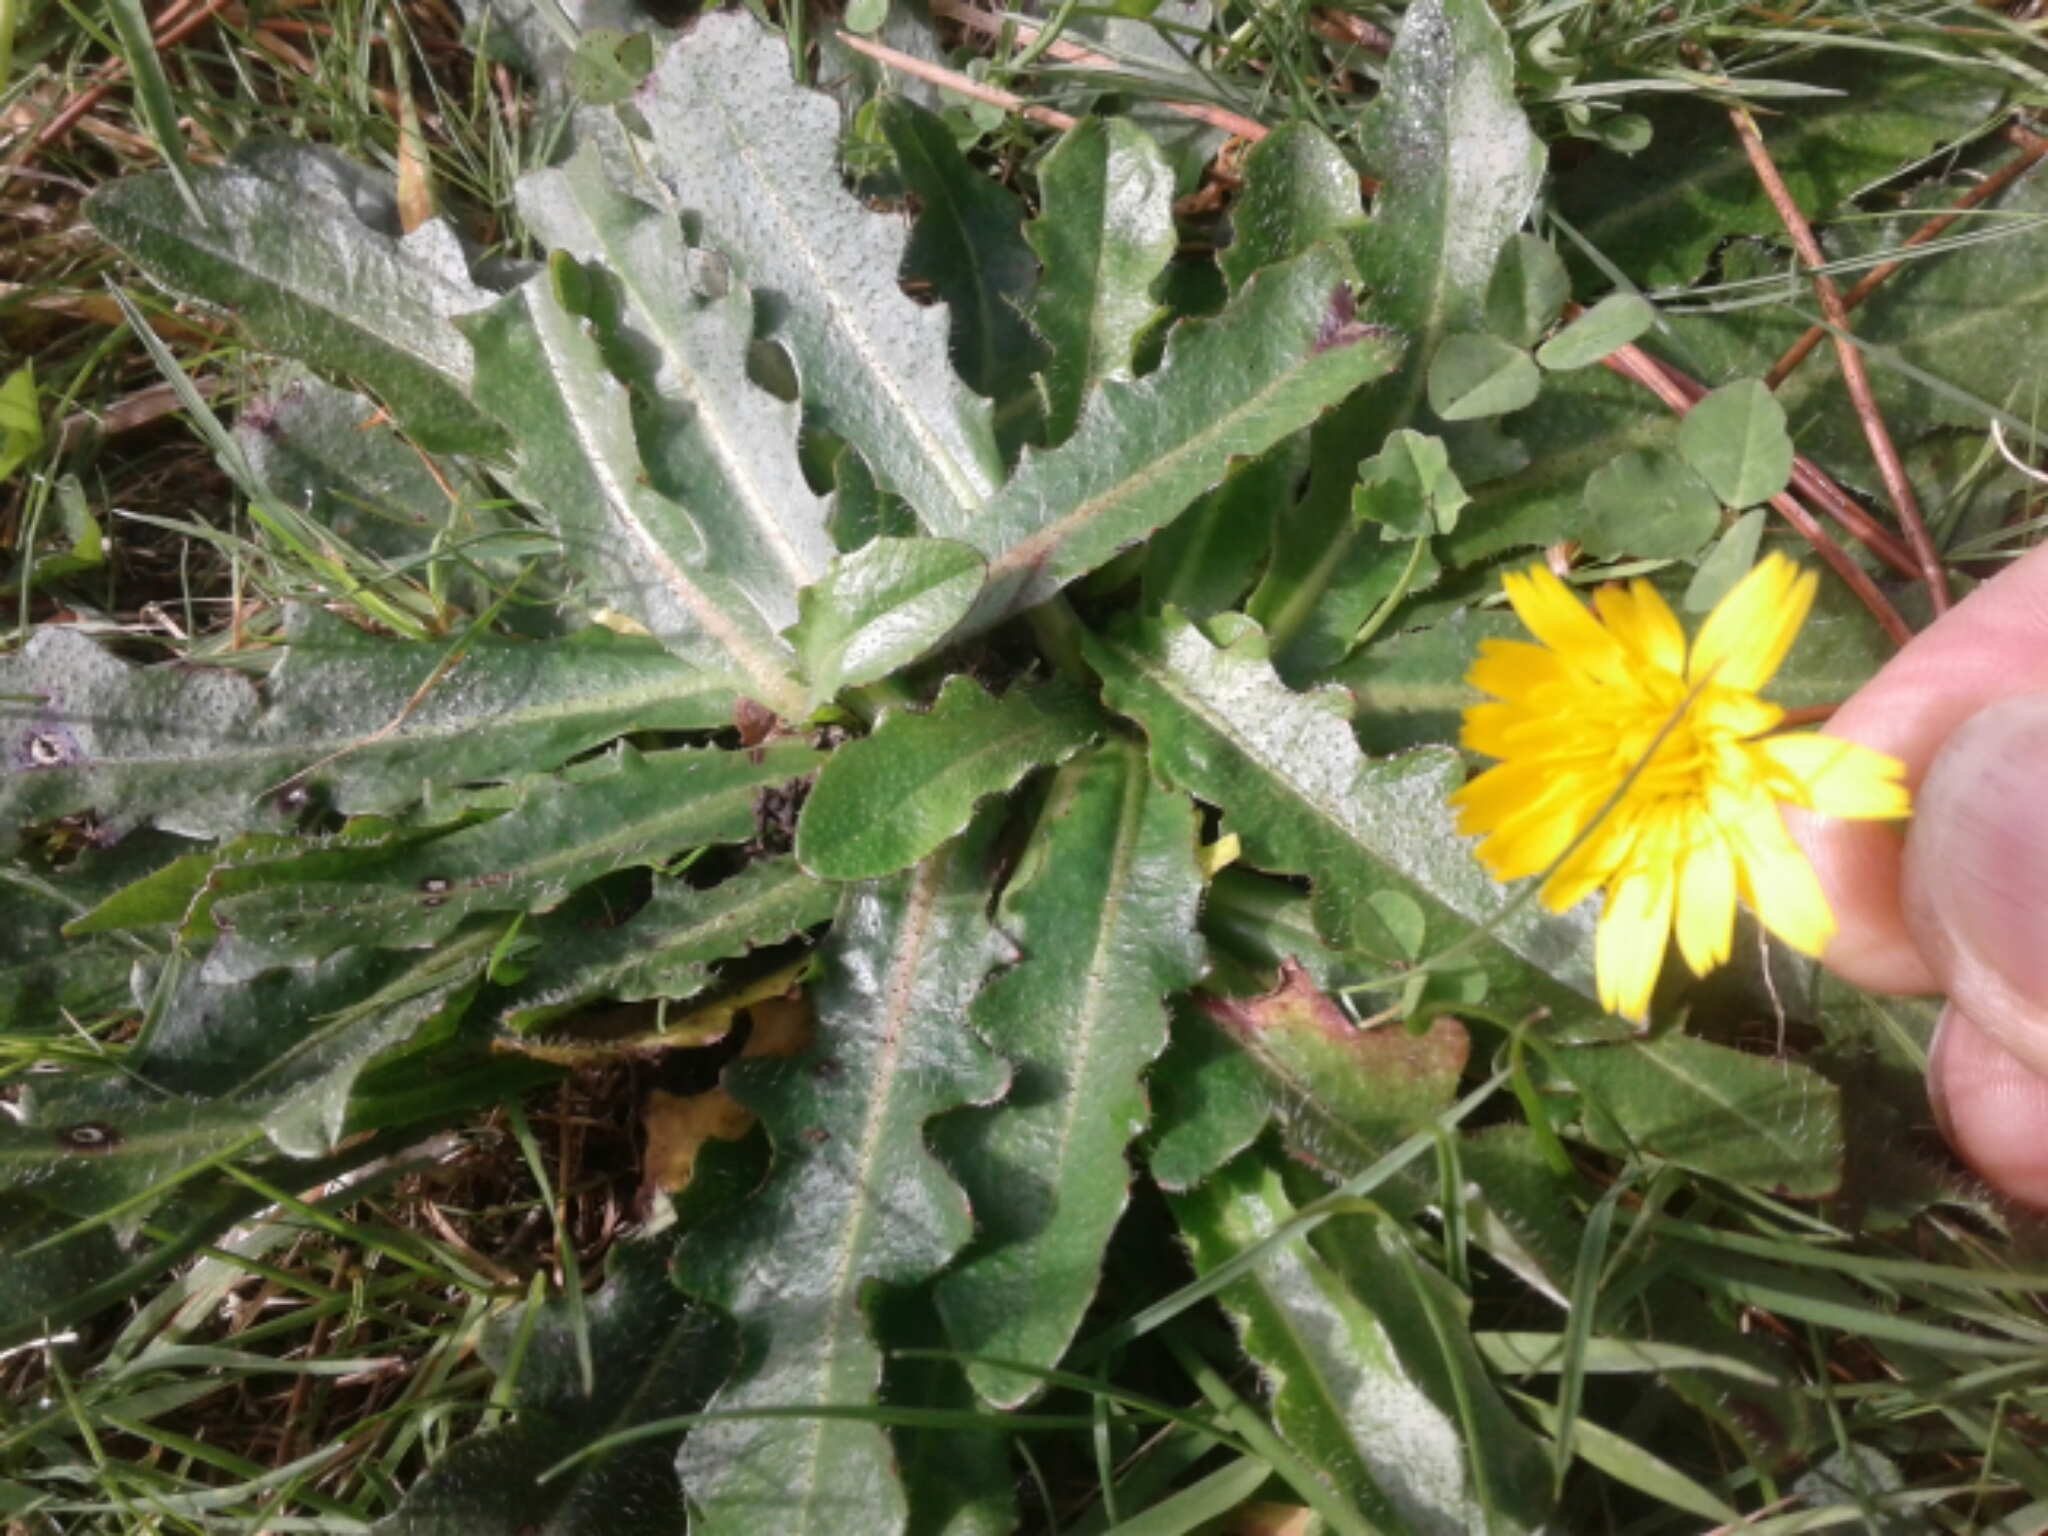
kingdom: Plantae
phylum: Tracheophyta
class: Magnoliopsida
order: Asterales
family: Asteraceae
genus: Hypochaeris
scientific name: Hypochaeris radicata
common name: Flatweed
